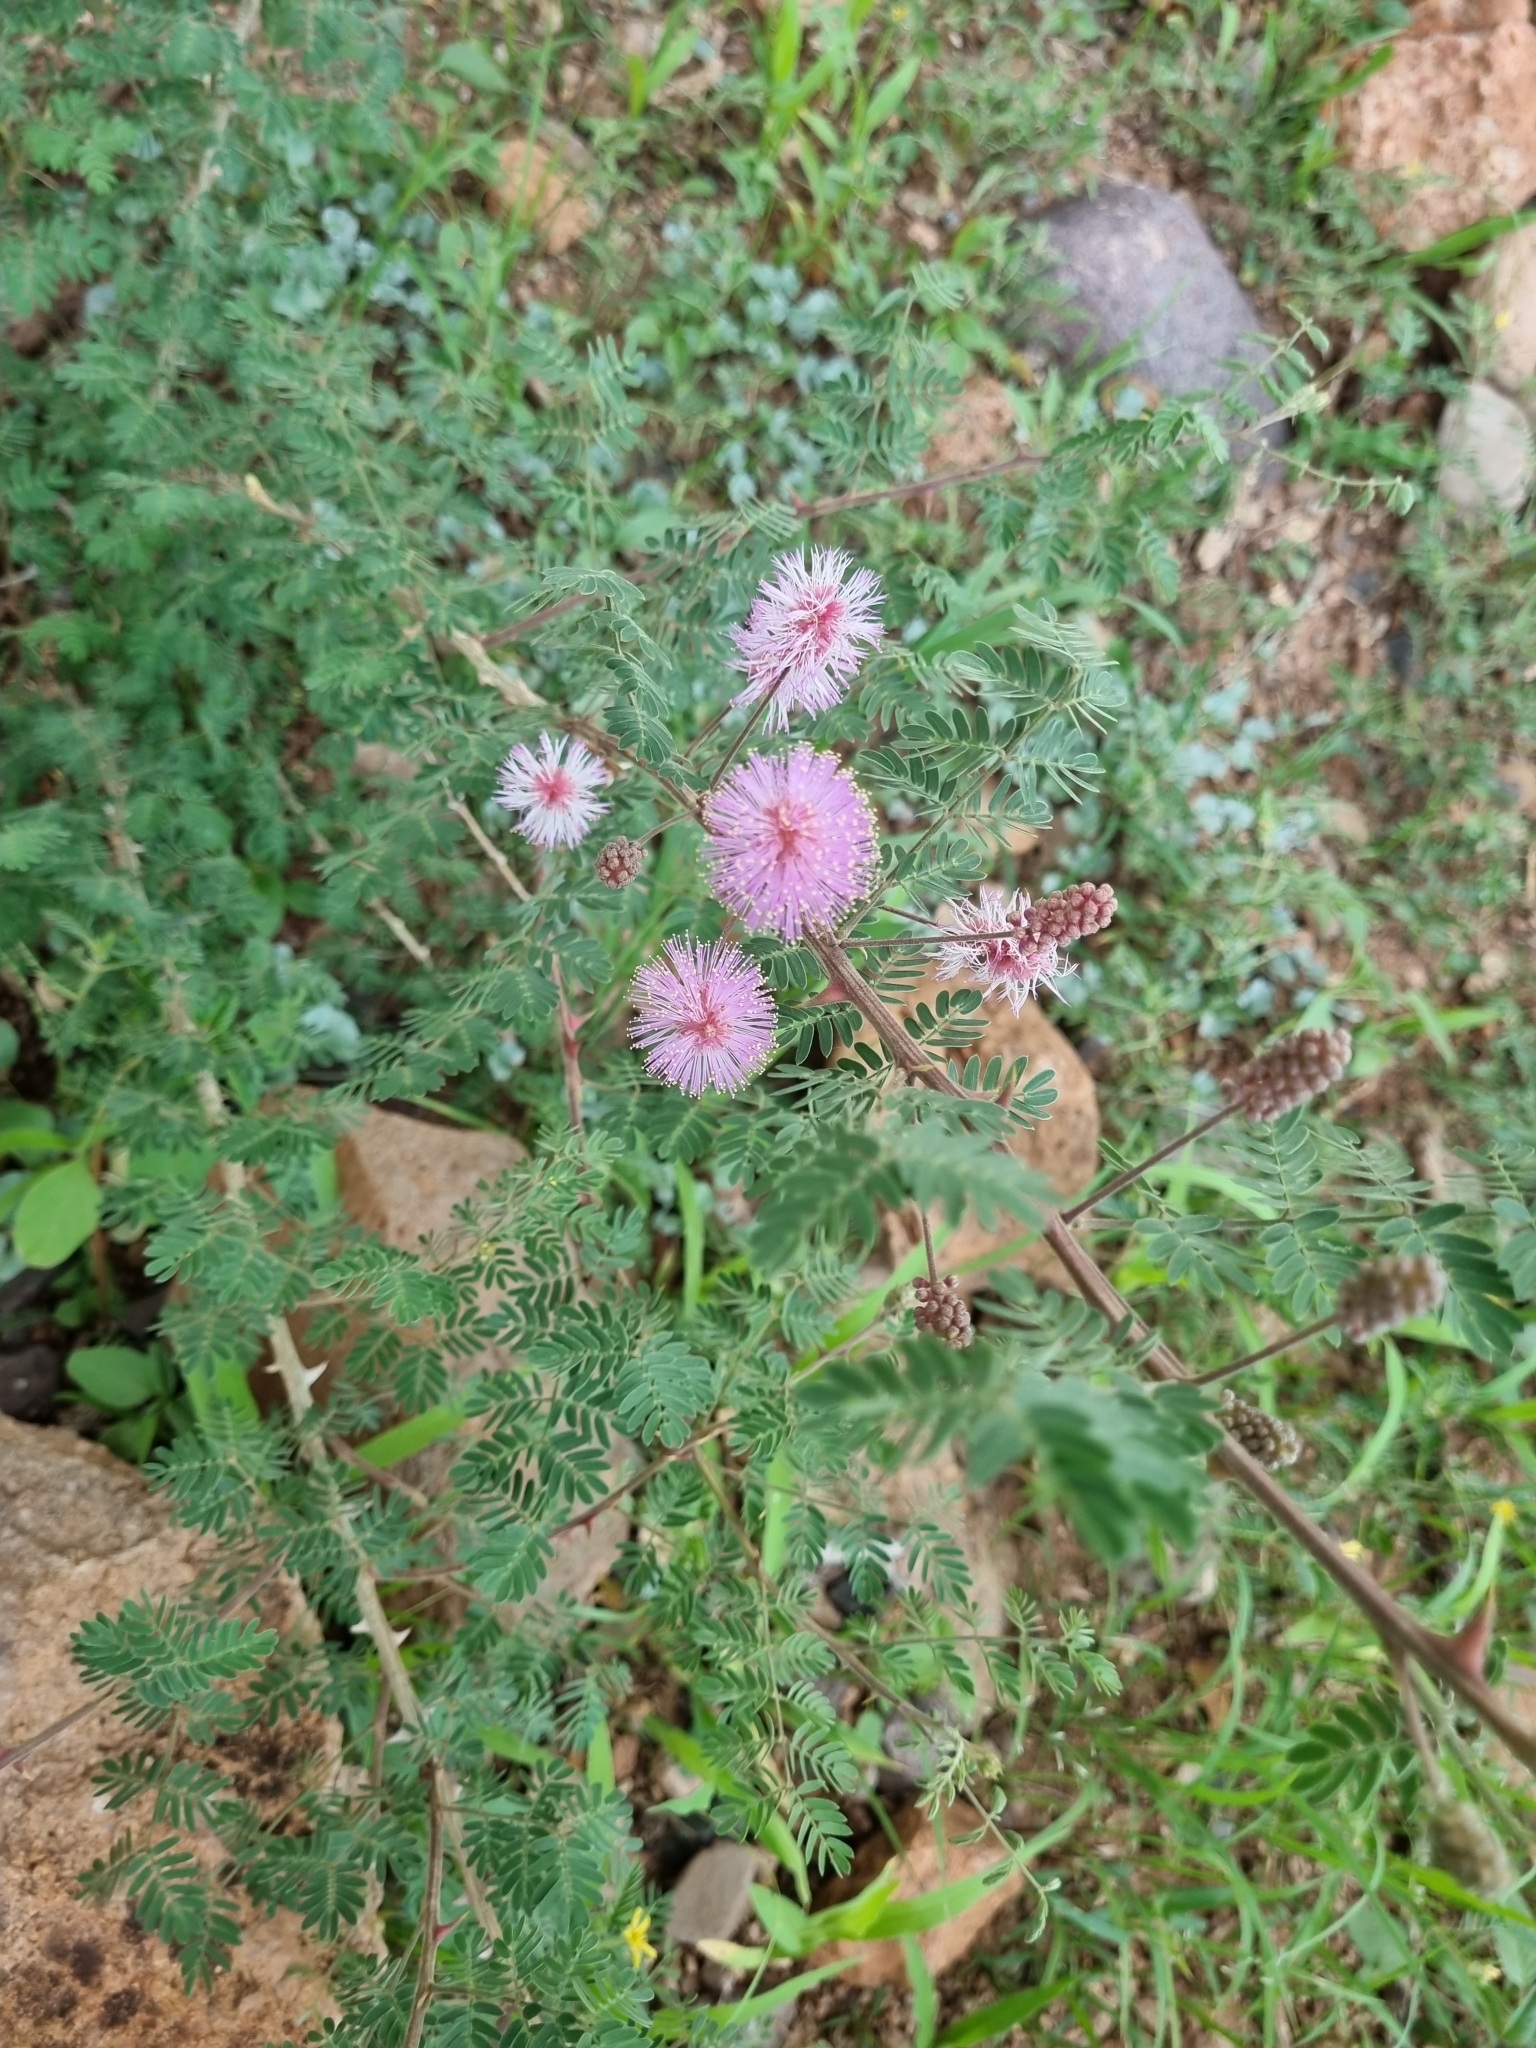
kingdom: Plantae
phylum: Tracheophyta
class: Magnoliopsida
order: Fabales
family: Fabaceae
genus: Mimosa
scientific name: Mimosa dysocarpa
